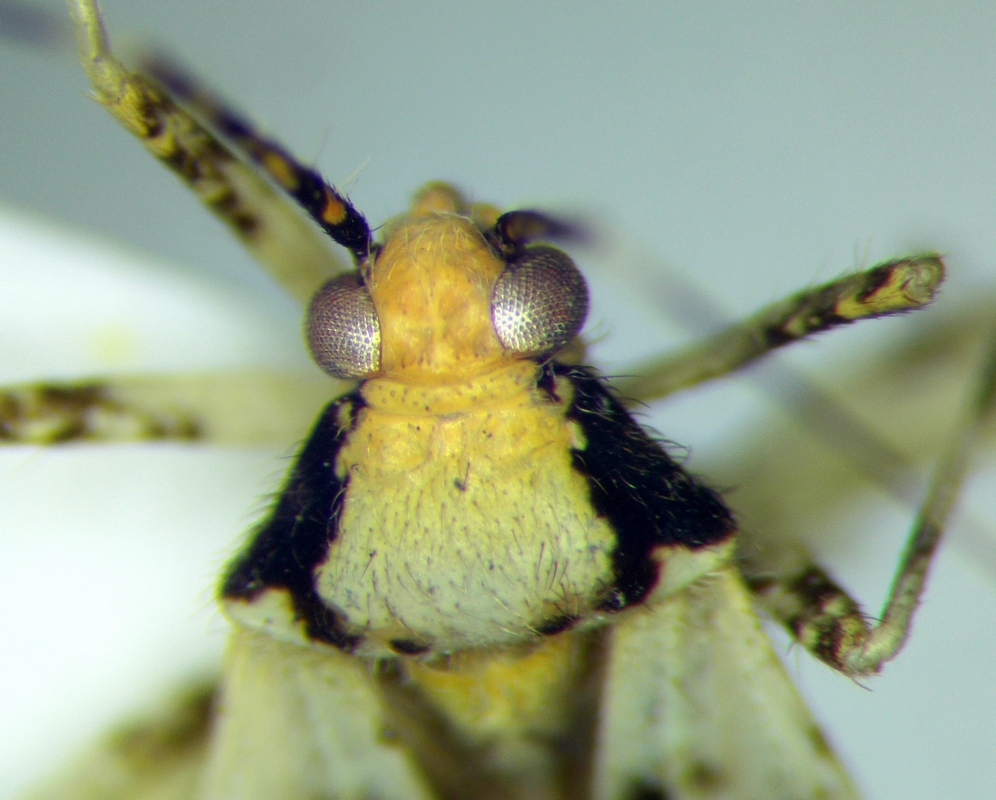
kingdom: Animalia
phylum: Arthropoda
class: Insecta
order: Hemiptera
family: Miridae
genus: Phytocoris
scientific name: Phytocoris tiliae
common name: Plant bug
